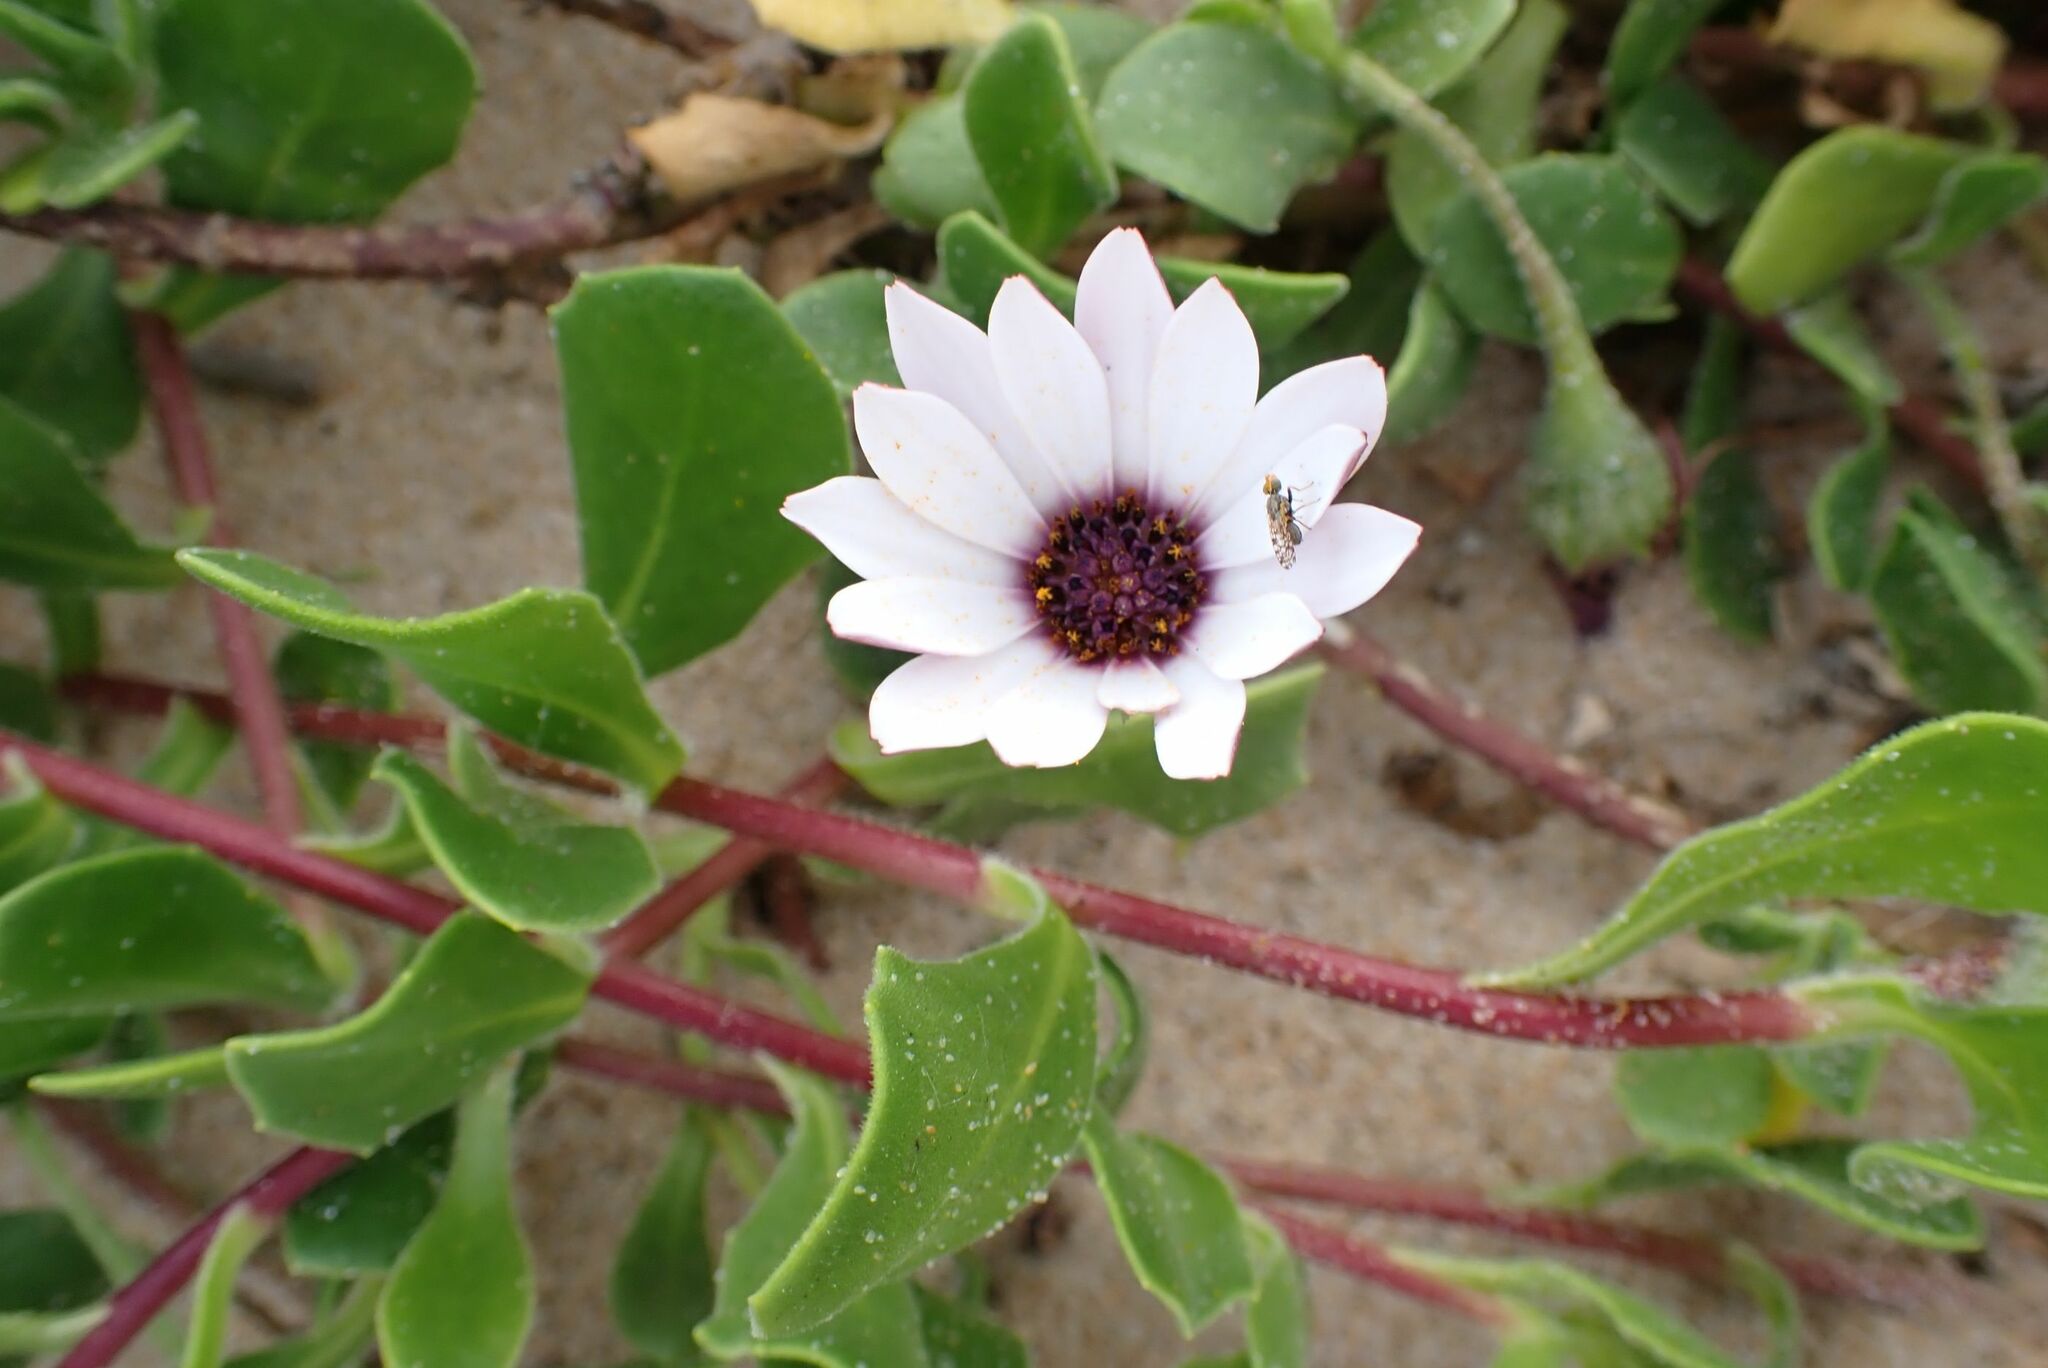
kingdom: Plantae
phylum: Tracheophyta
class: Magnoliopsida
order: Asterales
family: Asteraceae
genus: Dimorphotheca
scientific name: Dimorphotheca fruticosa
